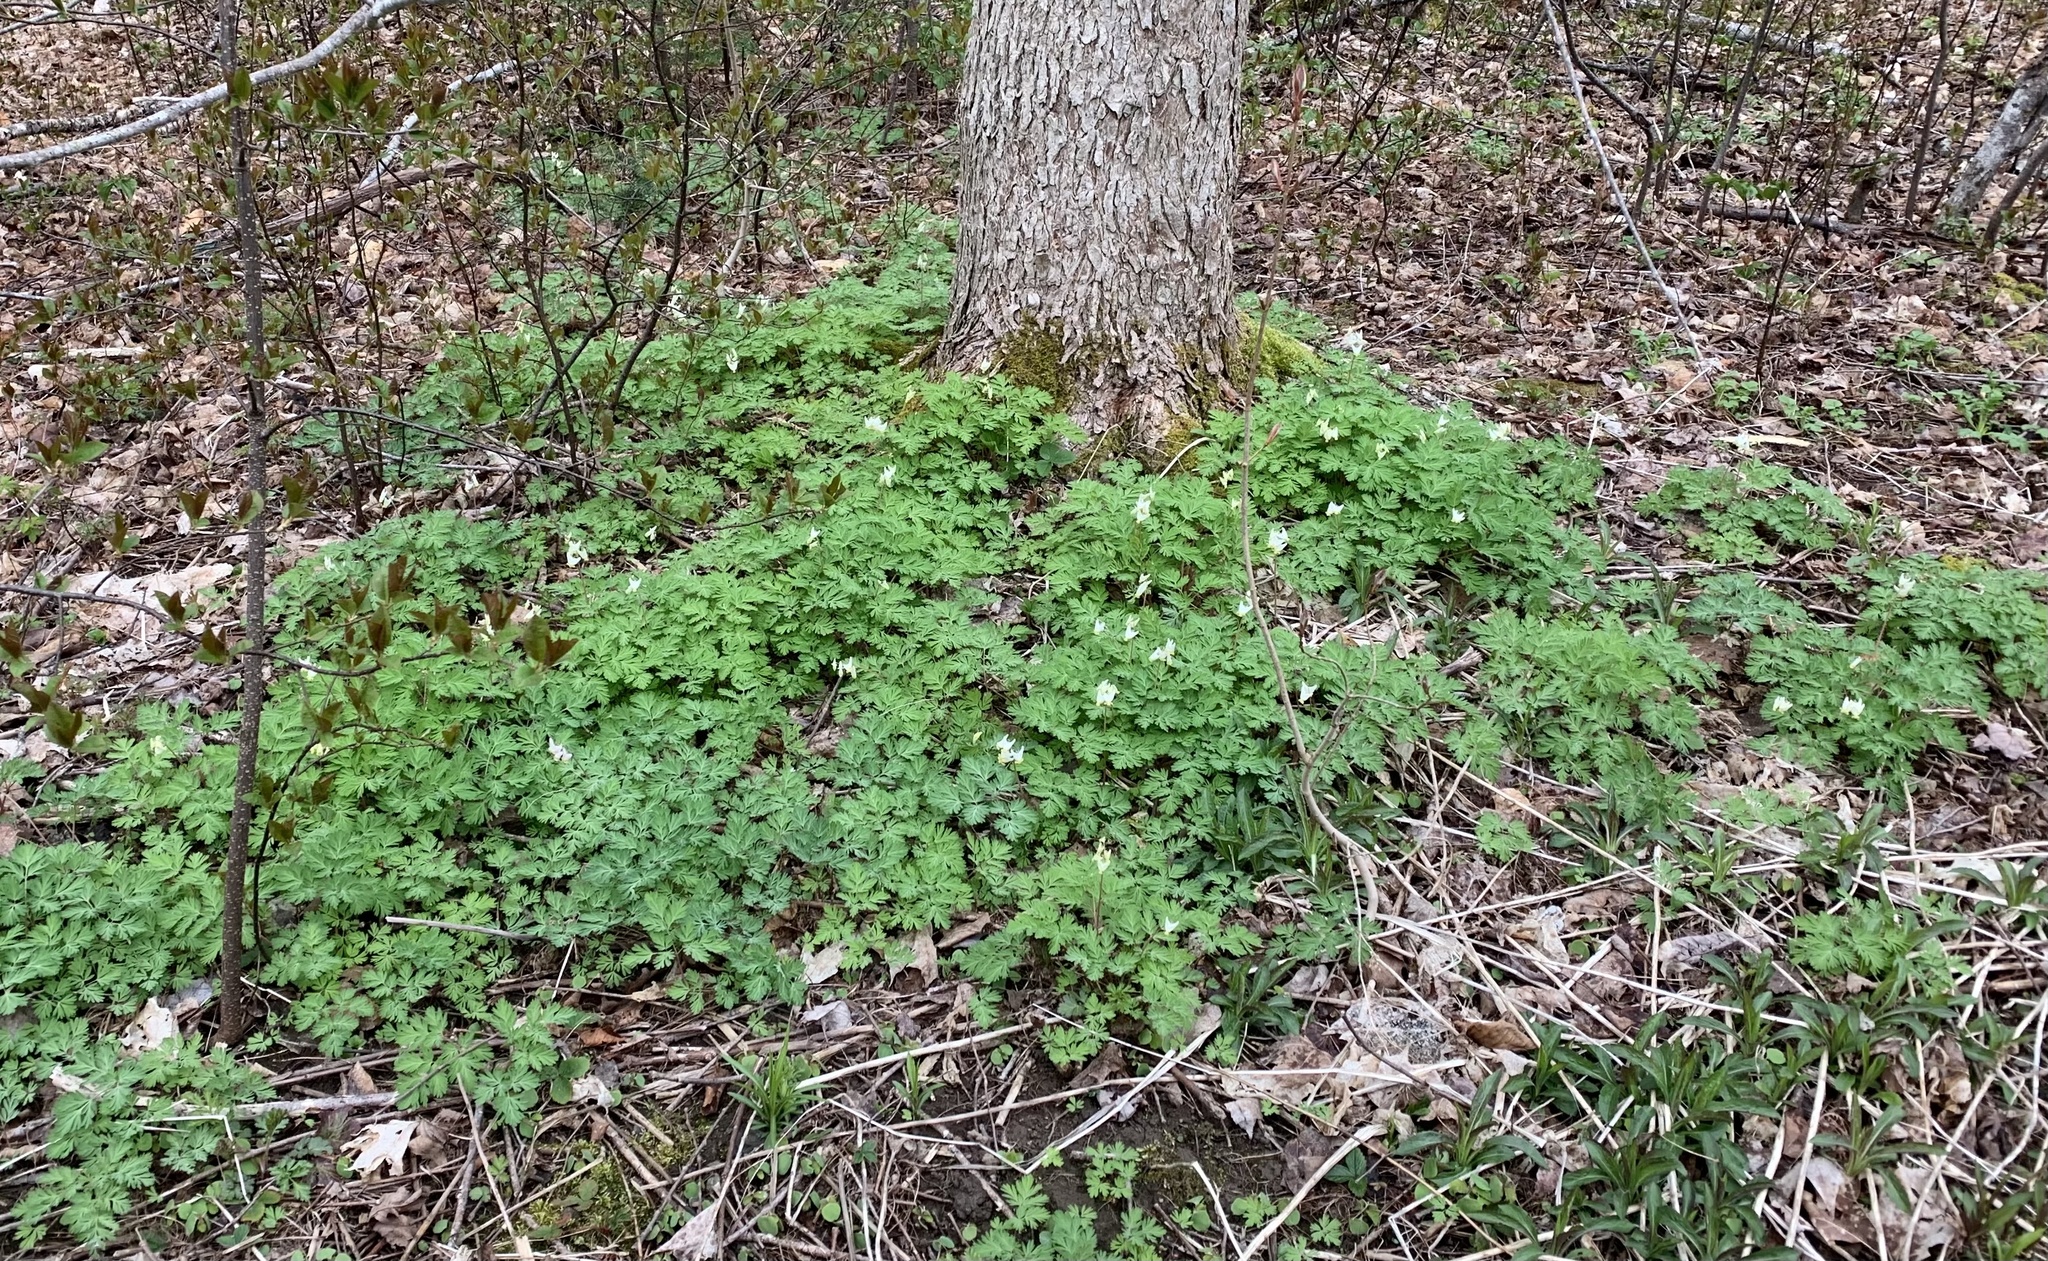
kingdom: Plantae
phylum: Tracheophyta
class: Magnoliopsida
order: Ranunculales
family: Papaveraceae
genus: Dicentra
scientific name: Dicentra cucullaria
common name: Dutchman's breeches
